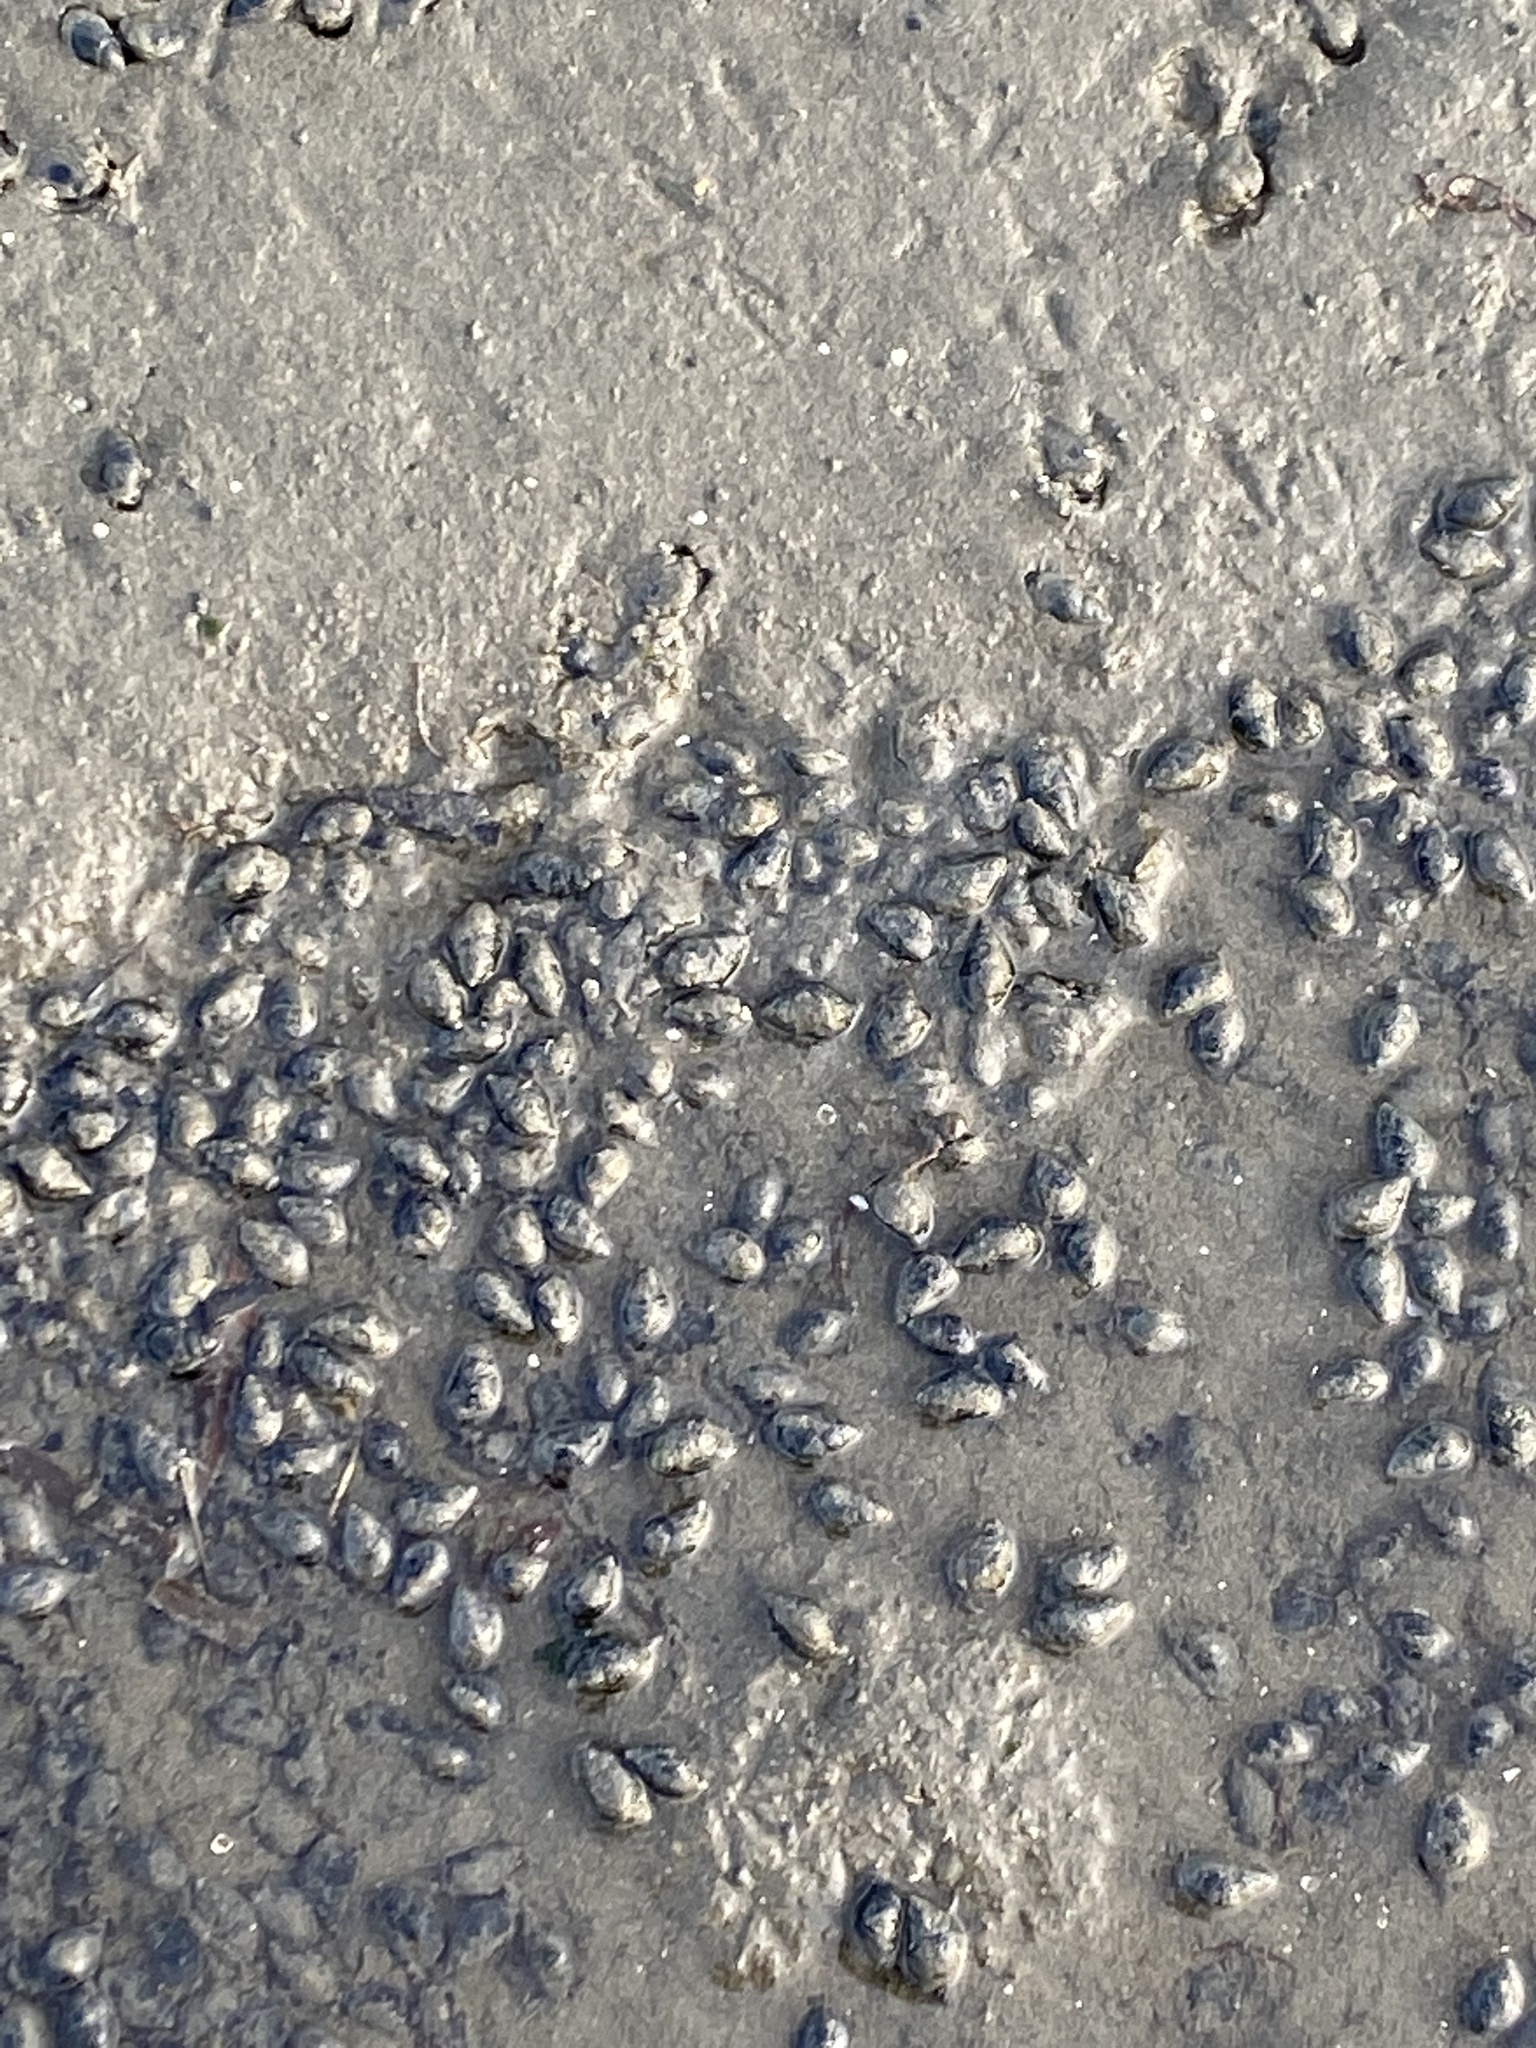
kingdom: Animalia
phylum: Mollusca
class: Gastropoda
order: Neogastropoda
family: Nassariidae
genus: Ilyanassa
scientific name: Ilyanassa obsoleta
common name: Eastern mudsnail
